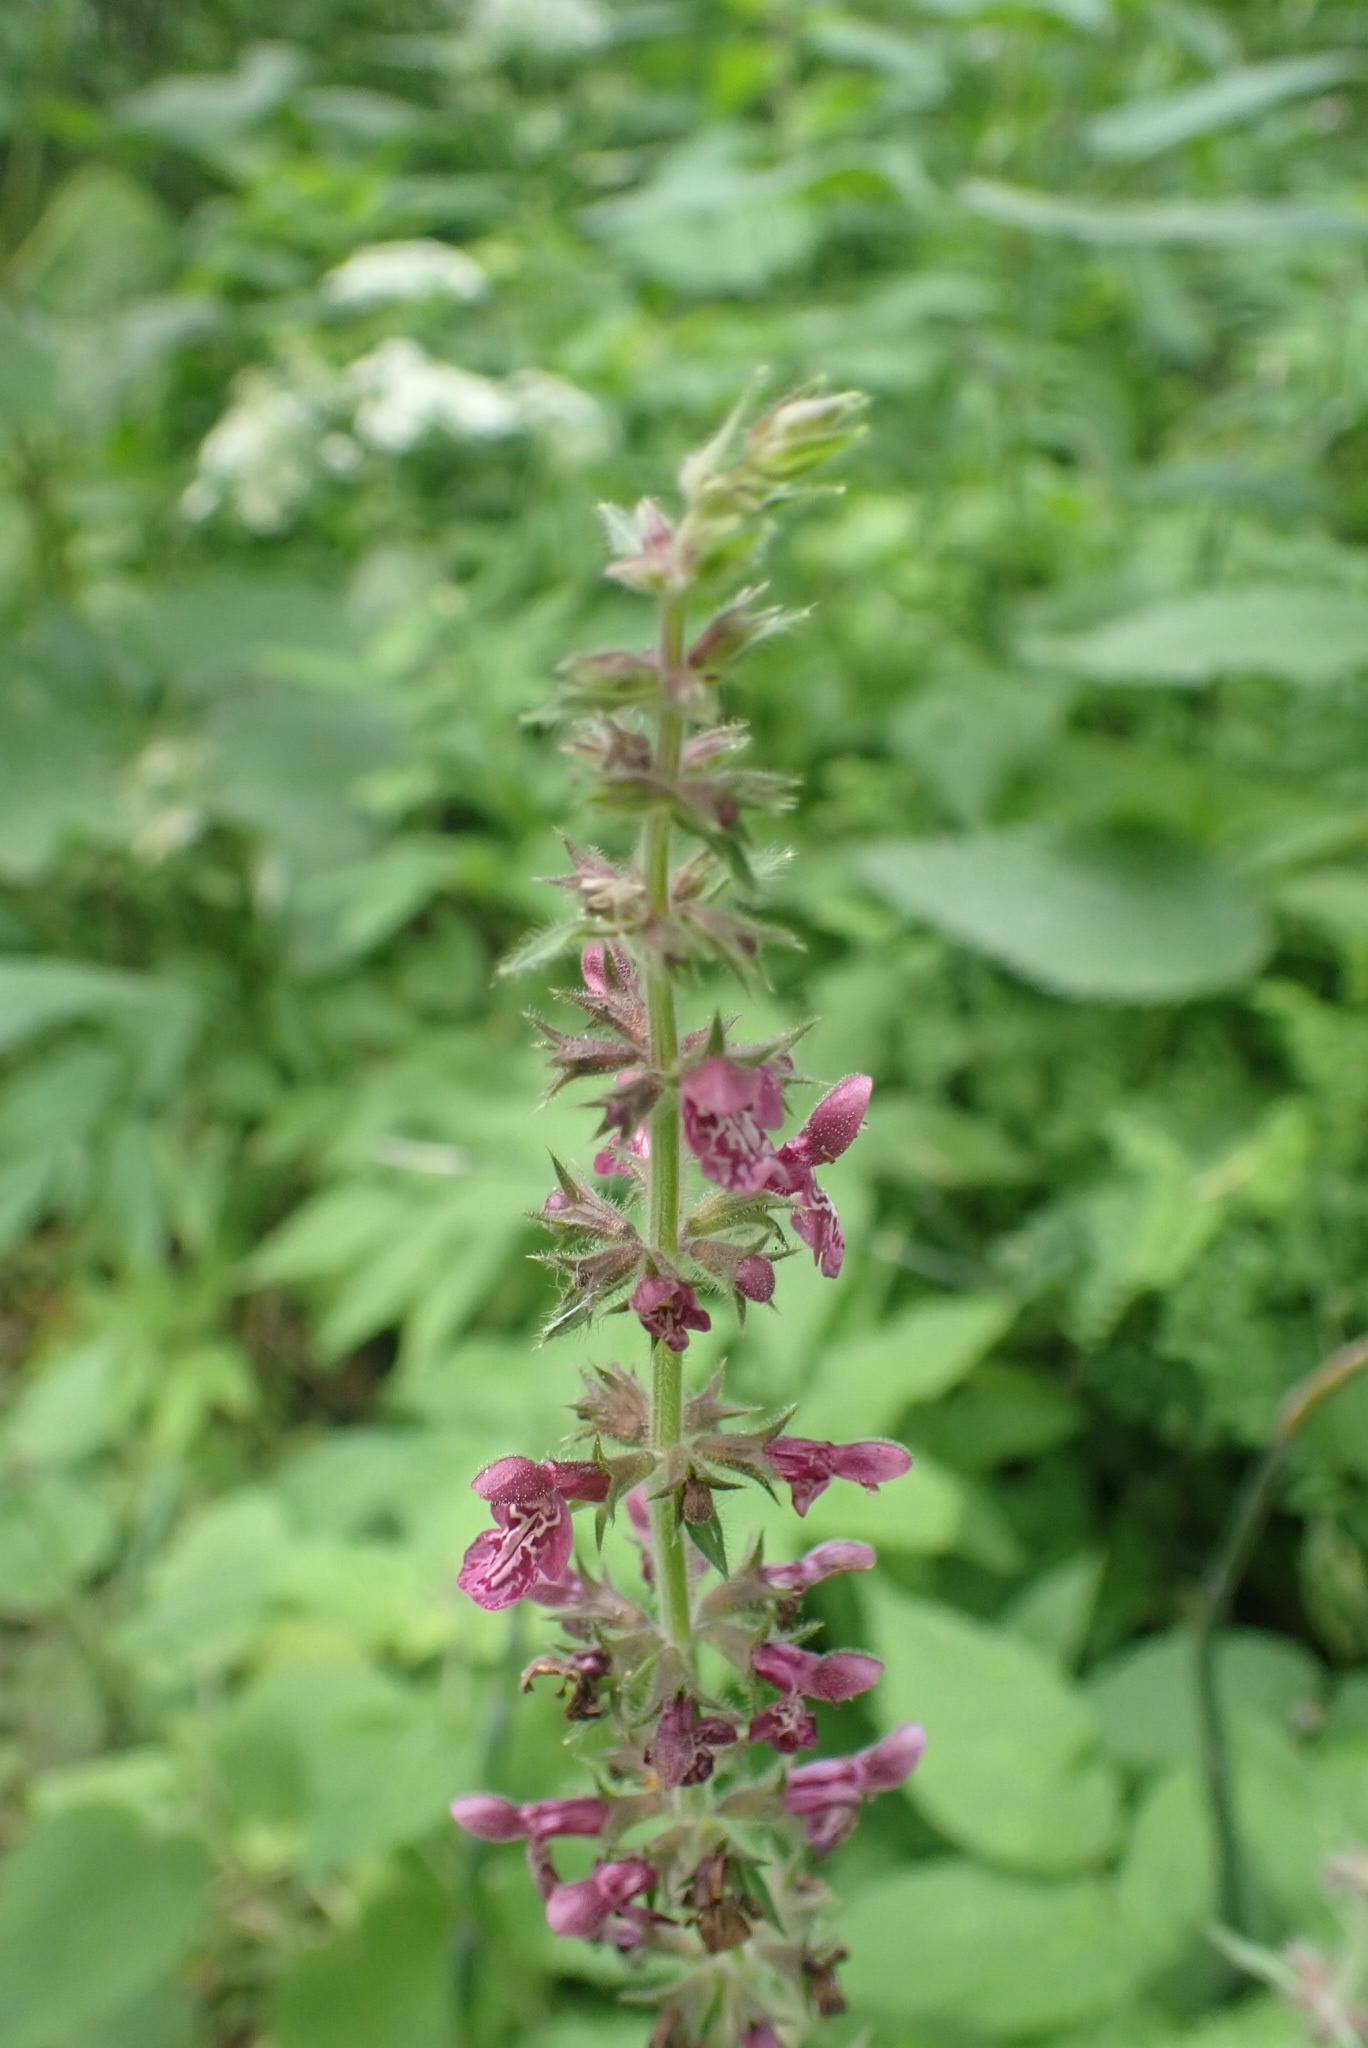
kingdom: Plantae
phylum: Tracheophyta
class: Magnoliopsida
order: Lamiales
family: Lamiaceae
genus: Stachys
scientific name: Stachys sylvatica
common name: Hedge woundwort
